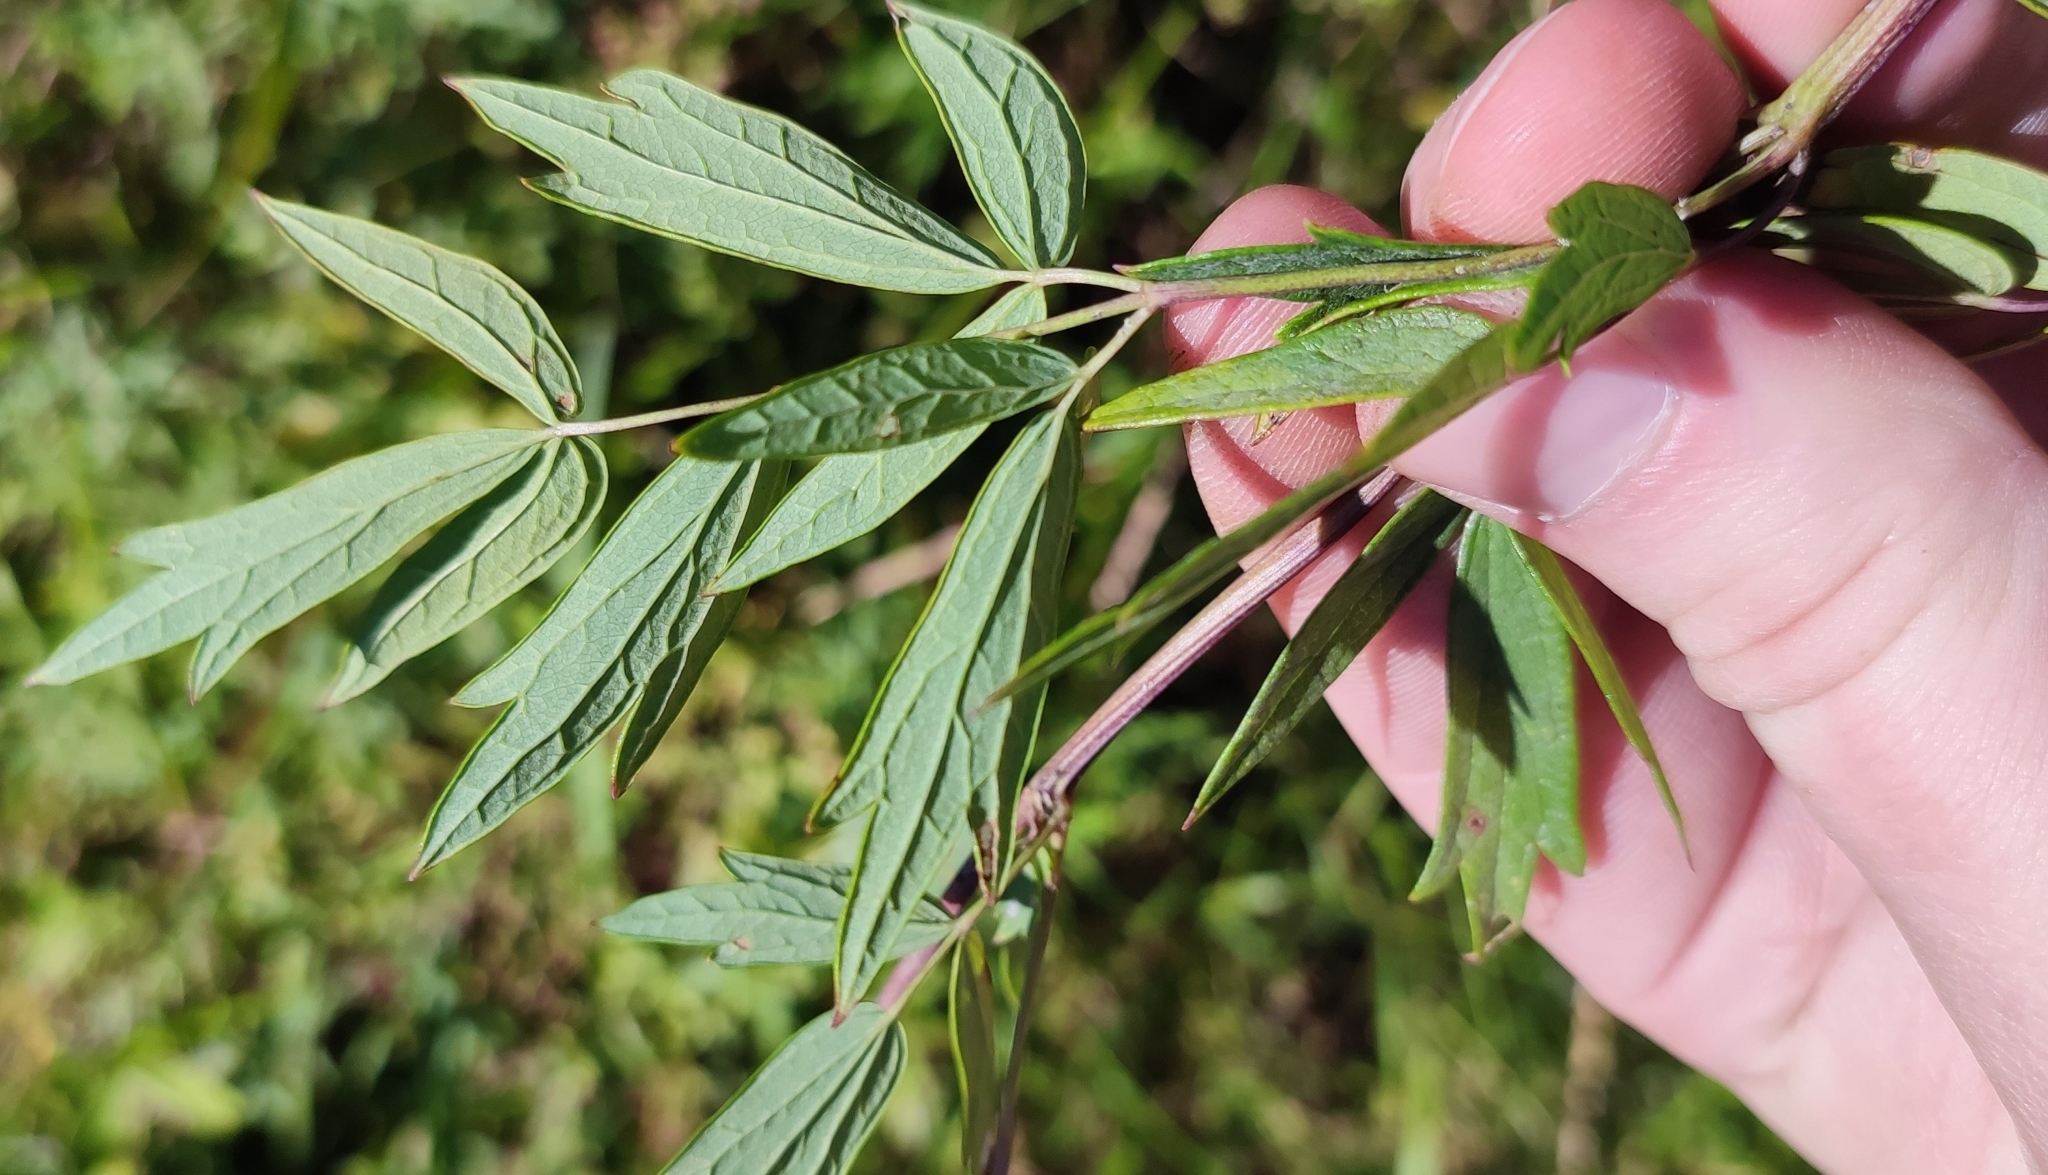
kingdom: Plantae
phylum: Tracheophyta
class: Magnoliopsida
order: Ranunculales
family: Ranunculaceae
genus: Thalictrum
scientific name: Thalictrum simplex
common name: Small meadow-rue
